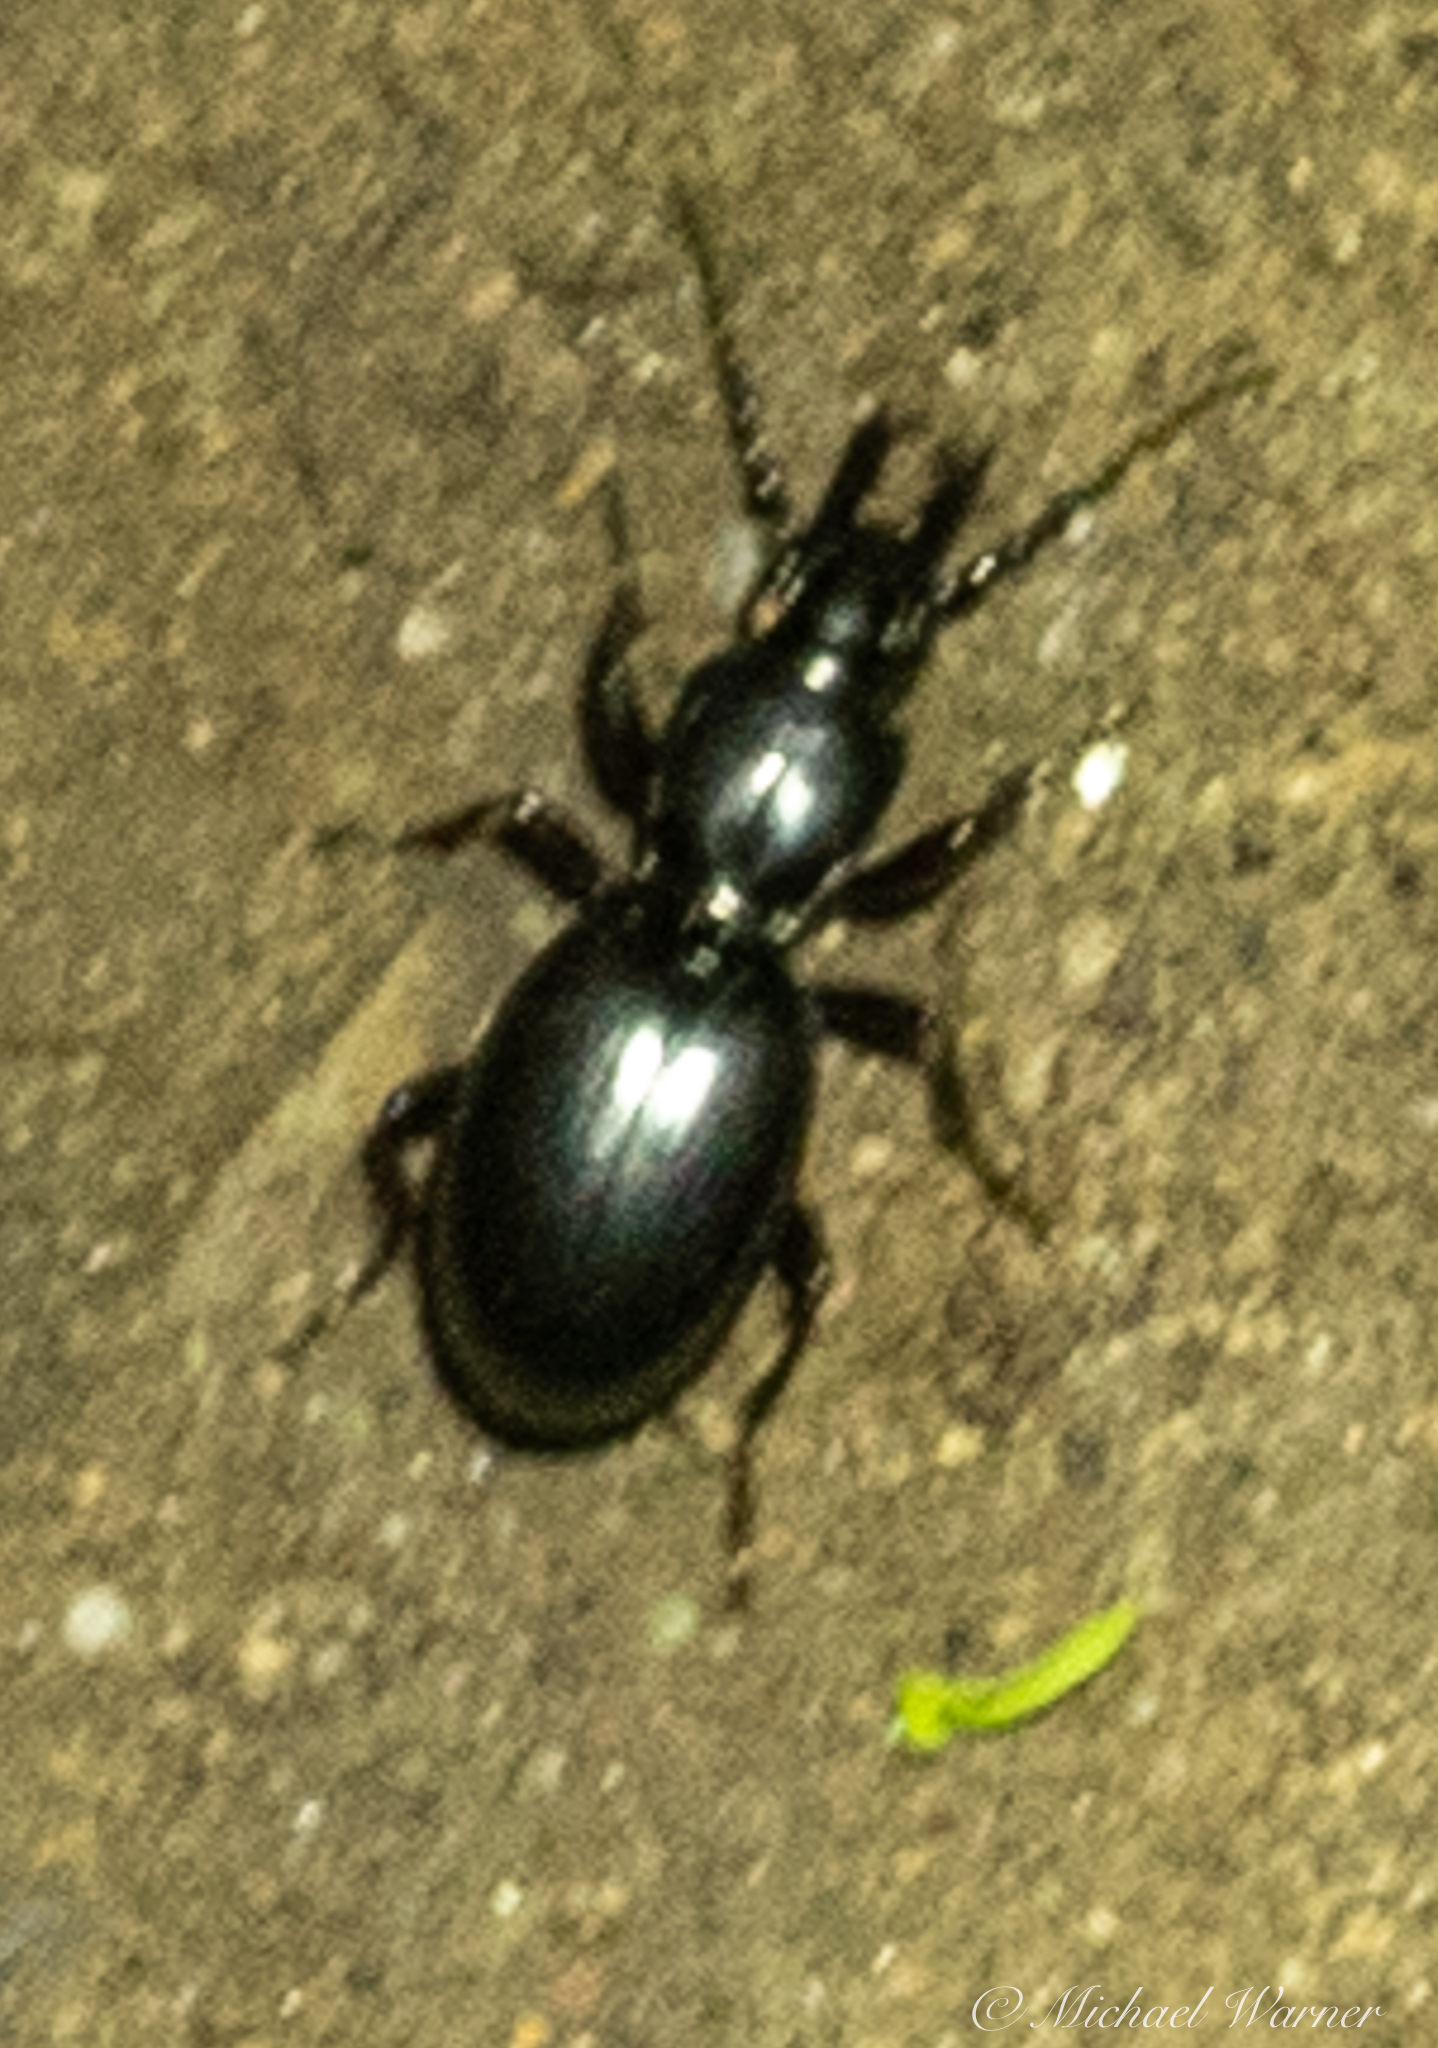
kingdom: Animalia
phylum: Arthropoda
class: Insecta
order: Coleoptera
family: Carabidae
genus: Promecognathus
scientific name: Promecognathus
